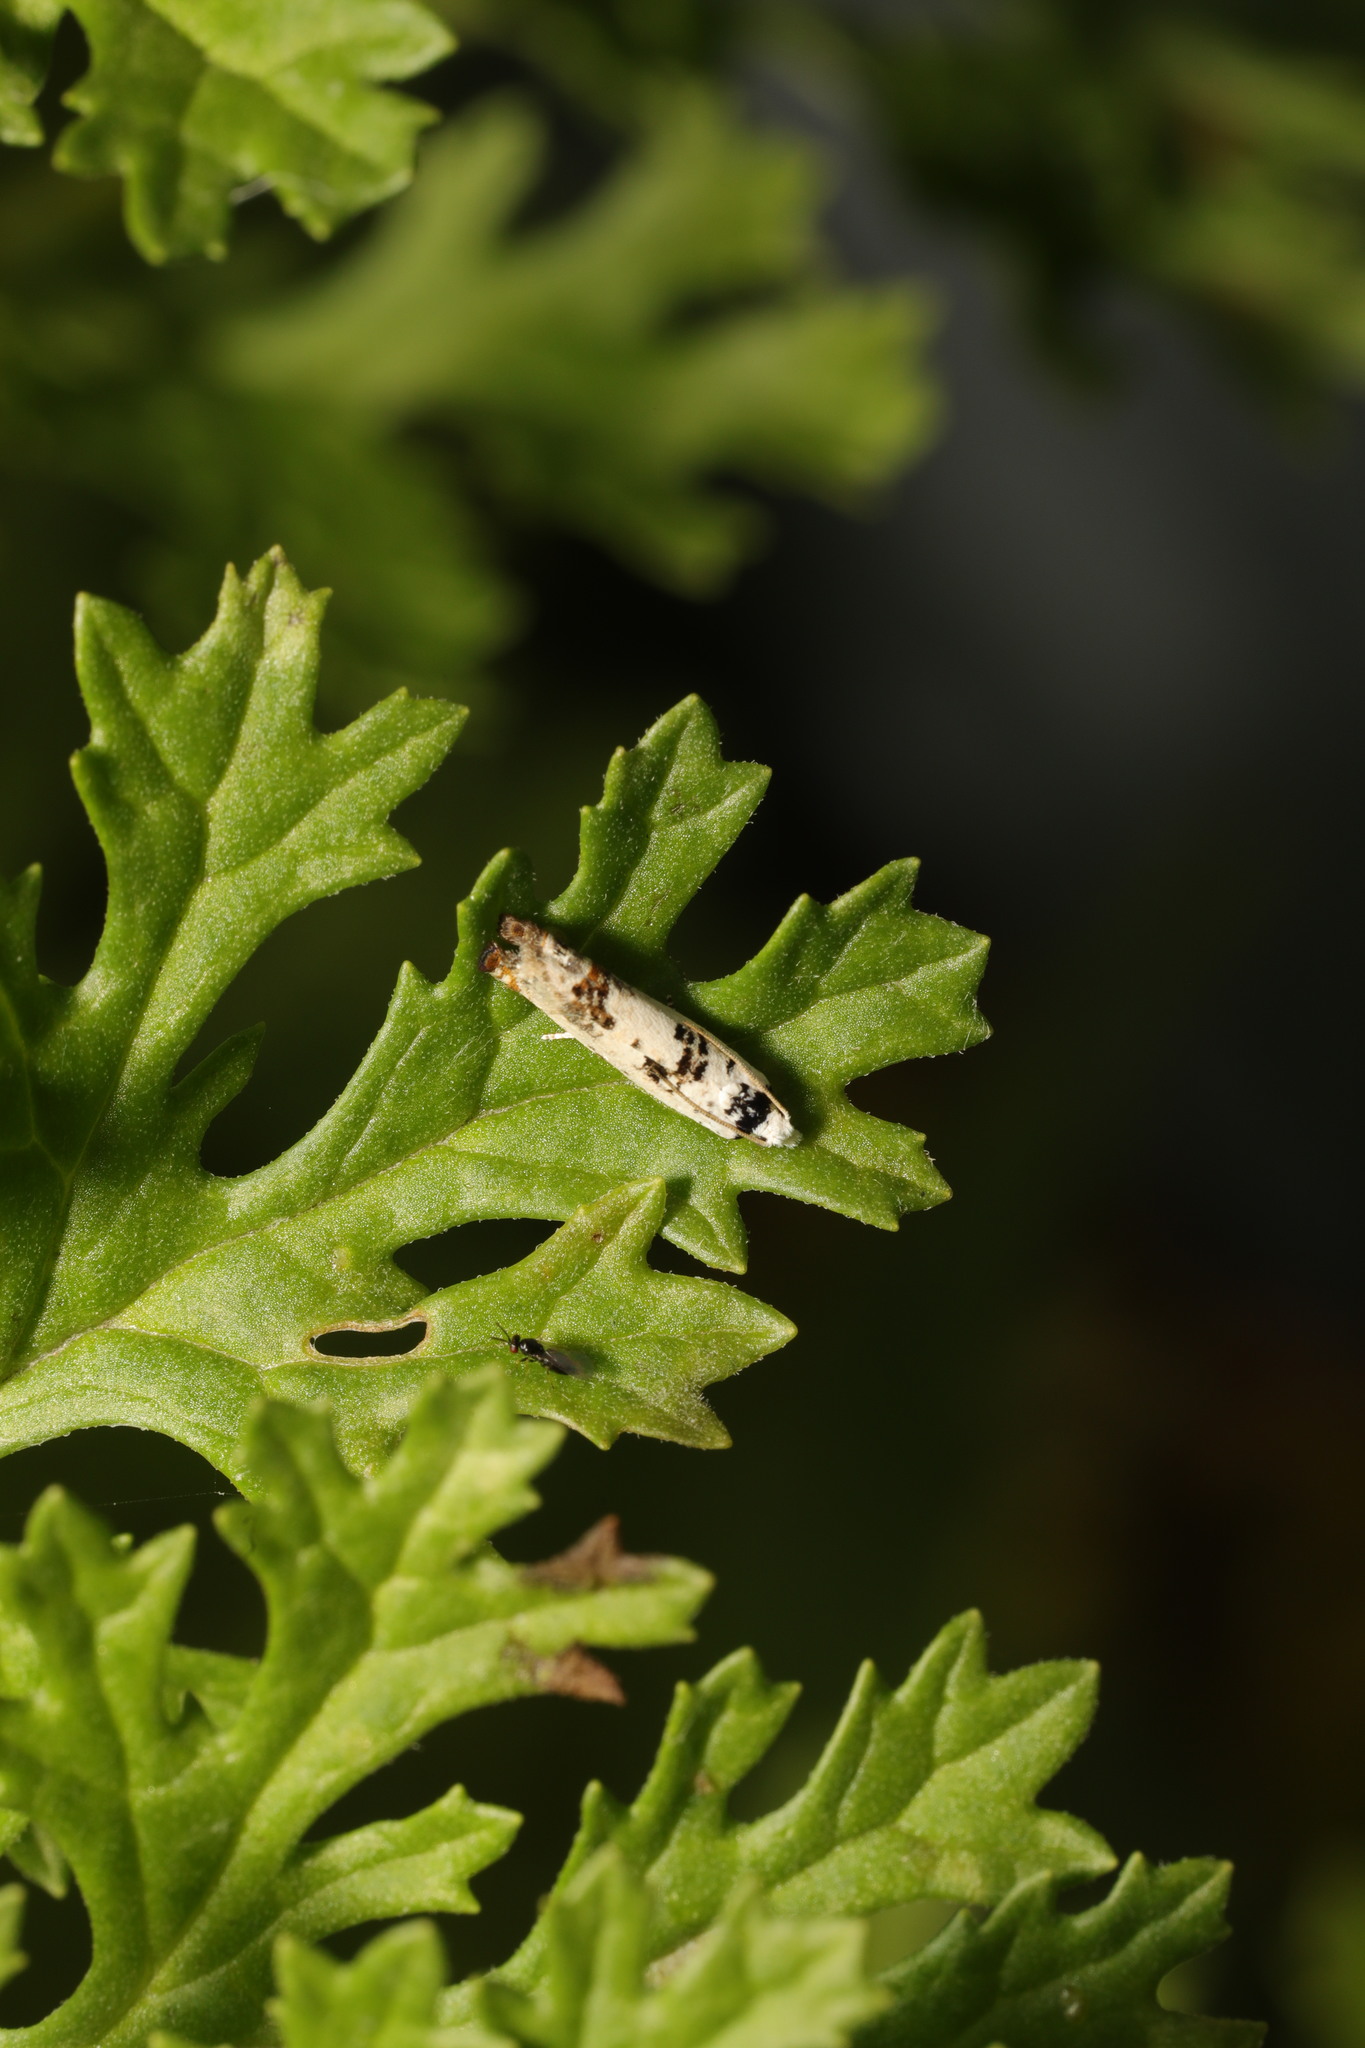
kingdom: Animalia
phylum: Arthropoda
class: Insecta
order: Lepidoptera
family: Tortricidae
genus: Eucosma
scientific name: Eucosma campoliliana
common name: Marbled bell
